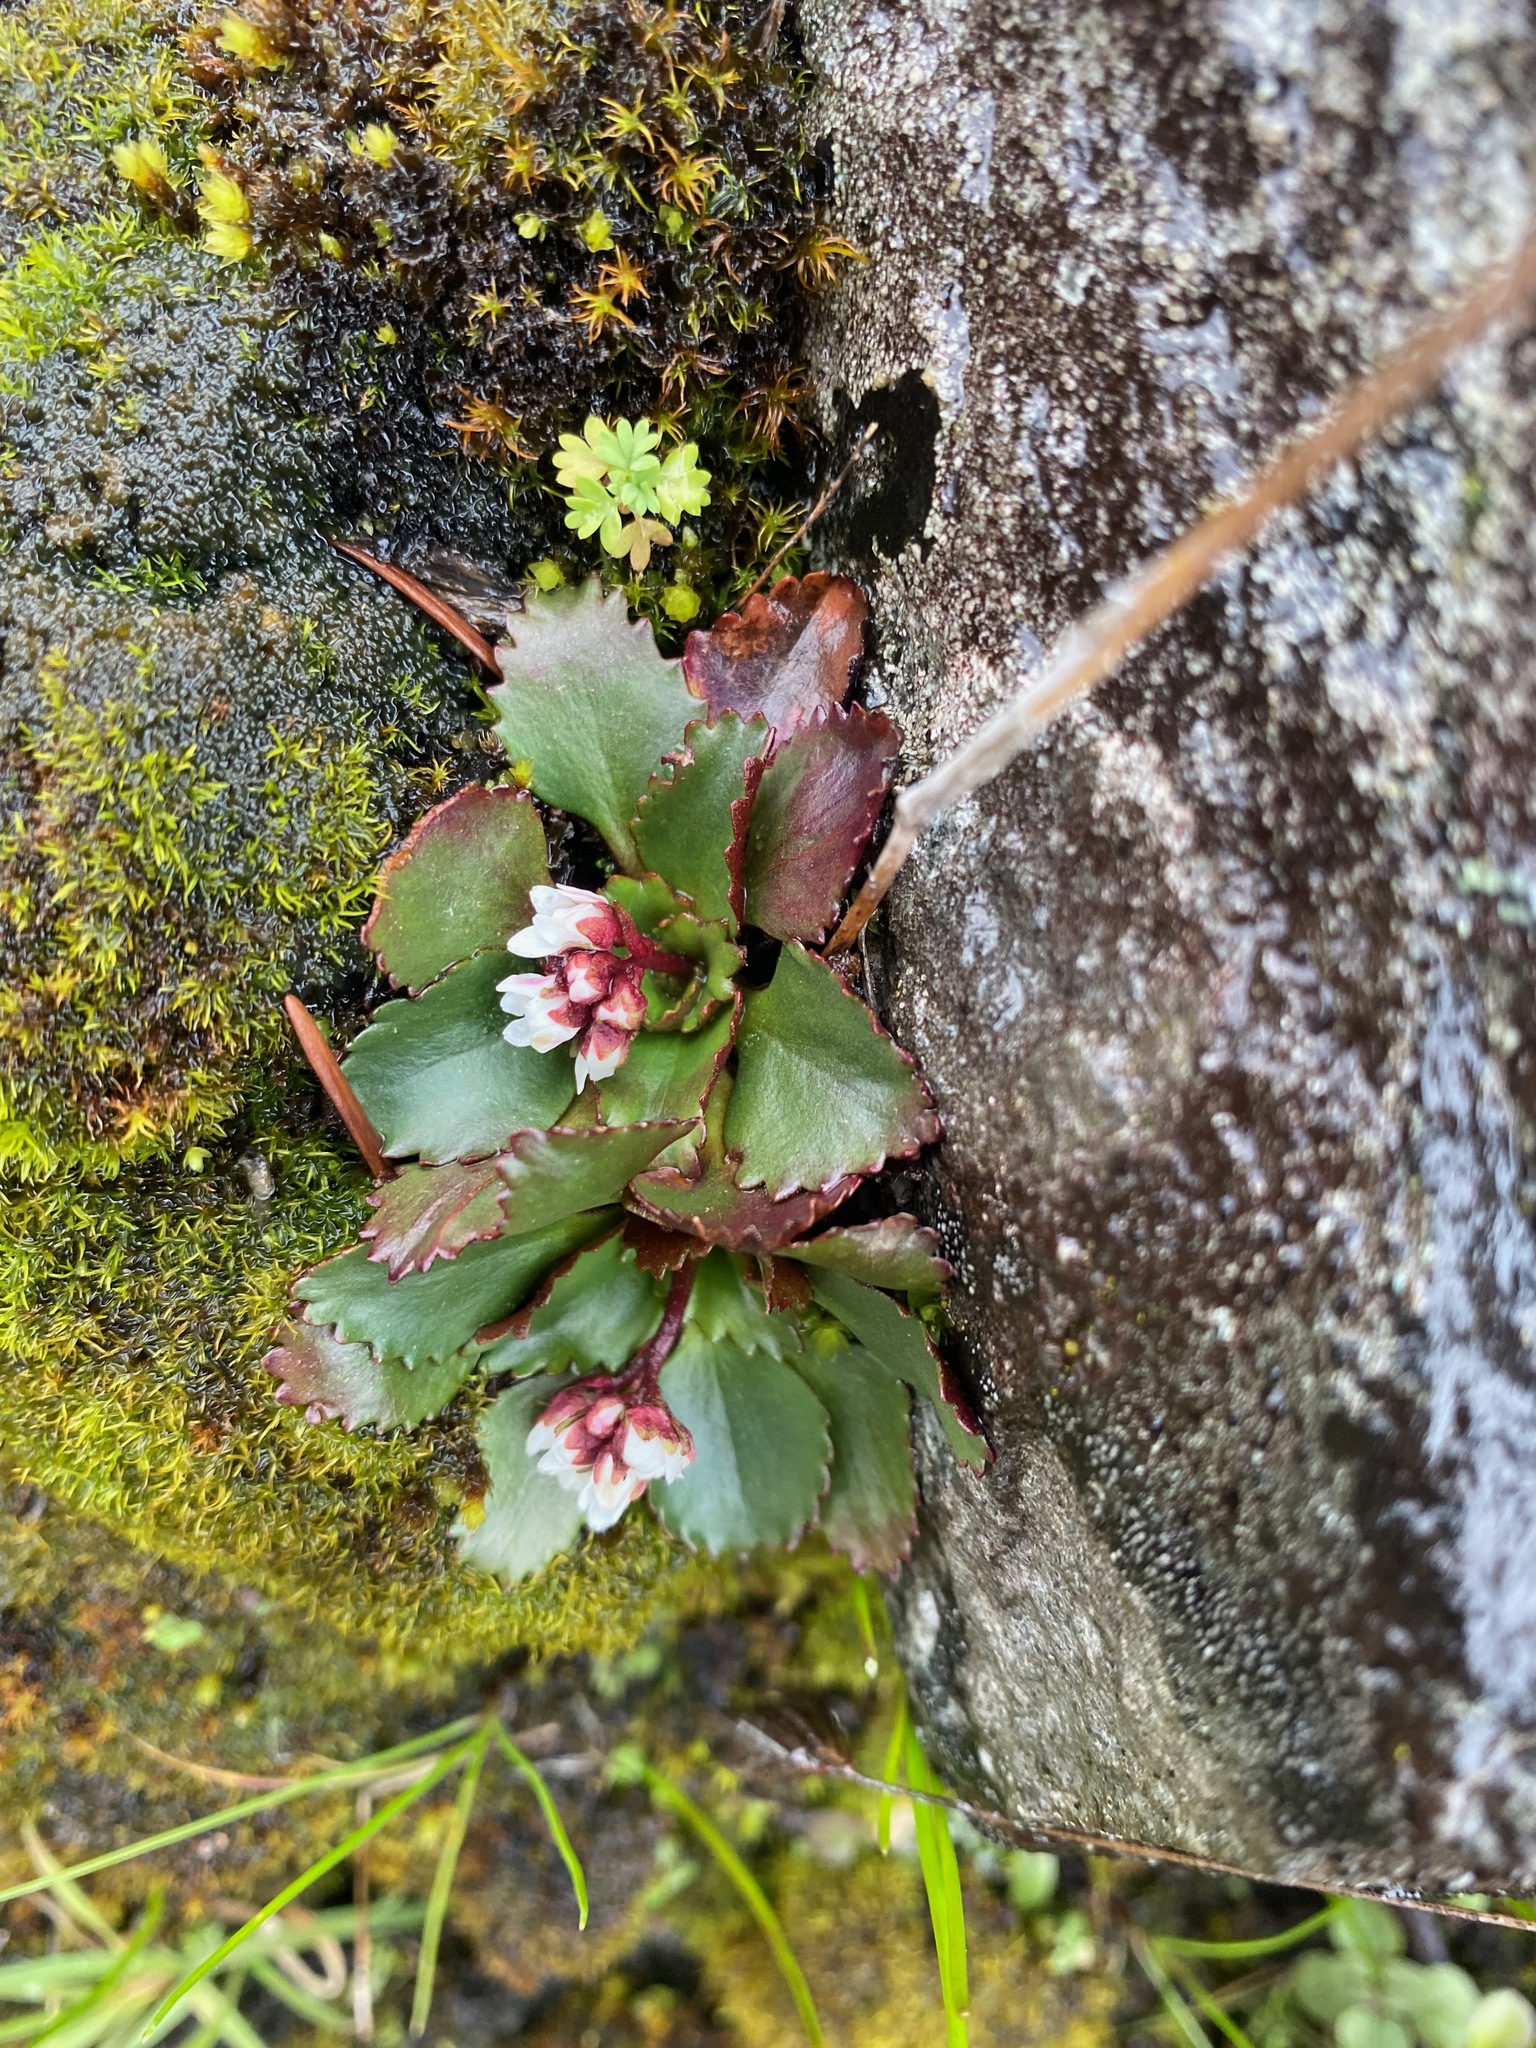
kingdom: Plantae
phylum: Tracheophyta
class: Magnoliopsida
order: Saxifragales
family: Saxifragaceae
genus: Micranthes
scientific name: Micranthes rufidula
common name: Rustyhair saxifrage
